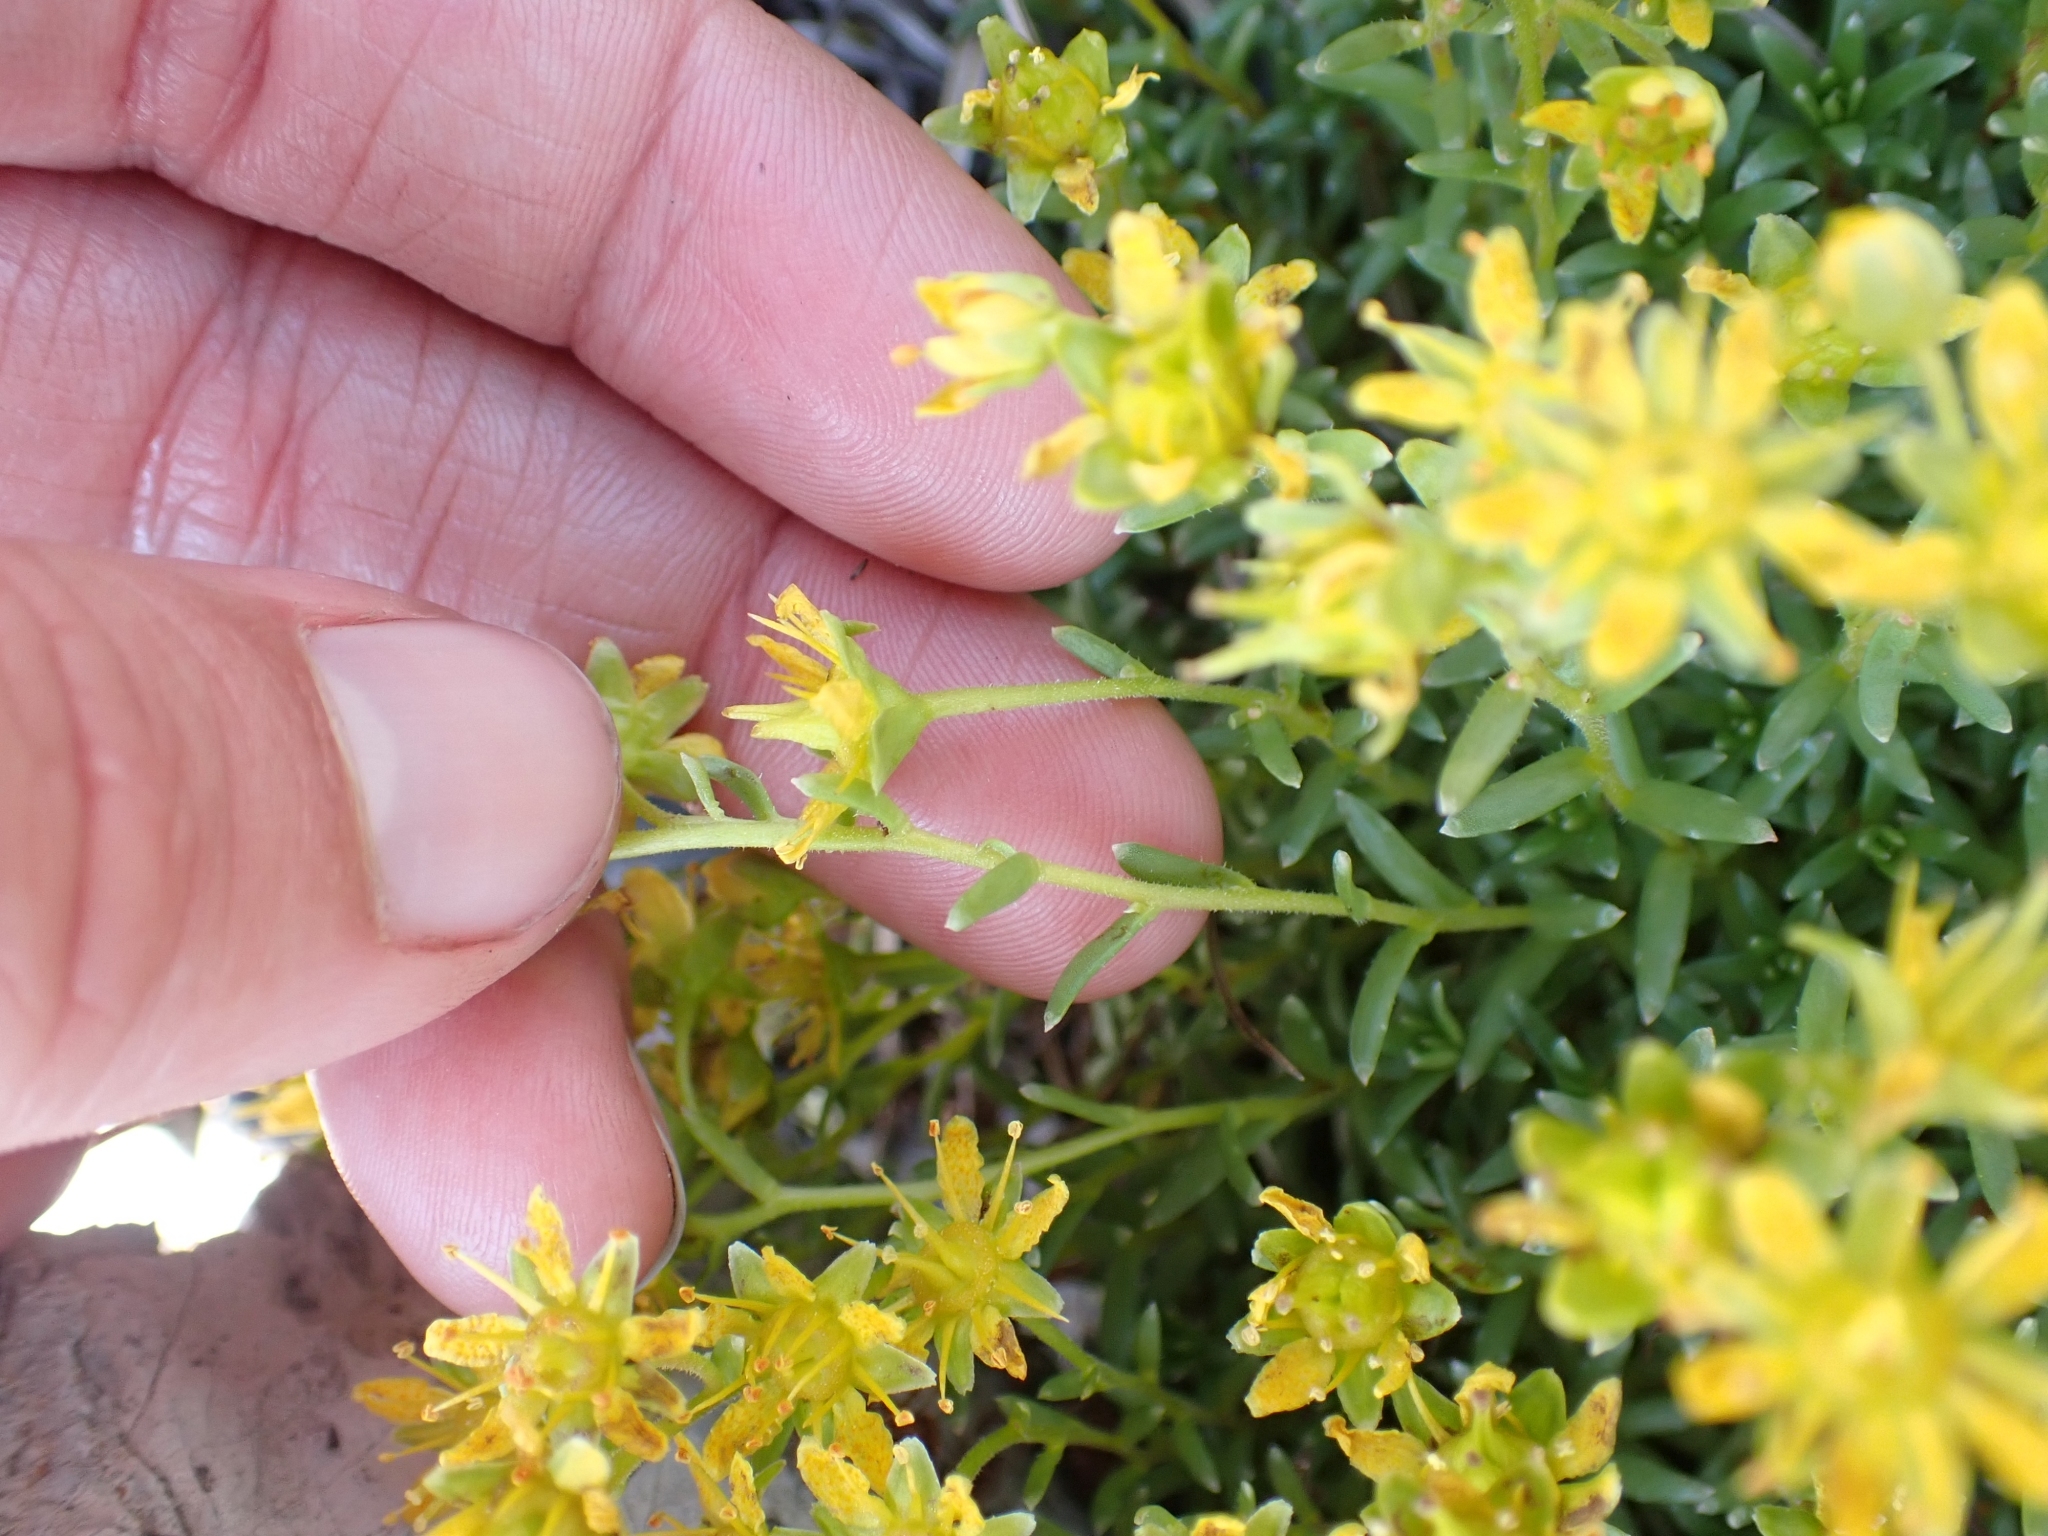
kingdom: Plantae
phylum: Tracheophyta
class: Magnoliopsida
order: Saxifragales
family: Saxifragaceae
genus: Saxifraga
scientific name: Saxifraga aizoides
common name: Yellow mountain saxifrage
